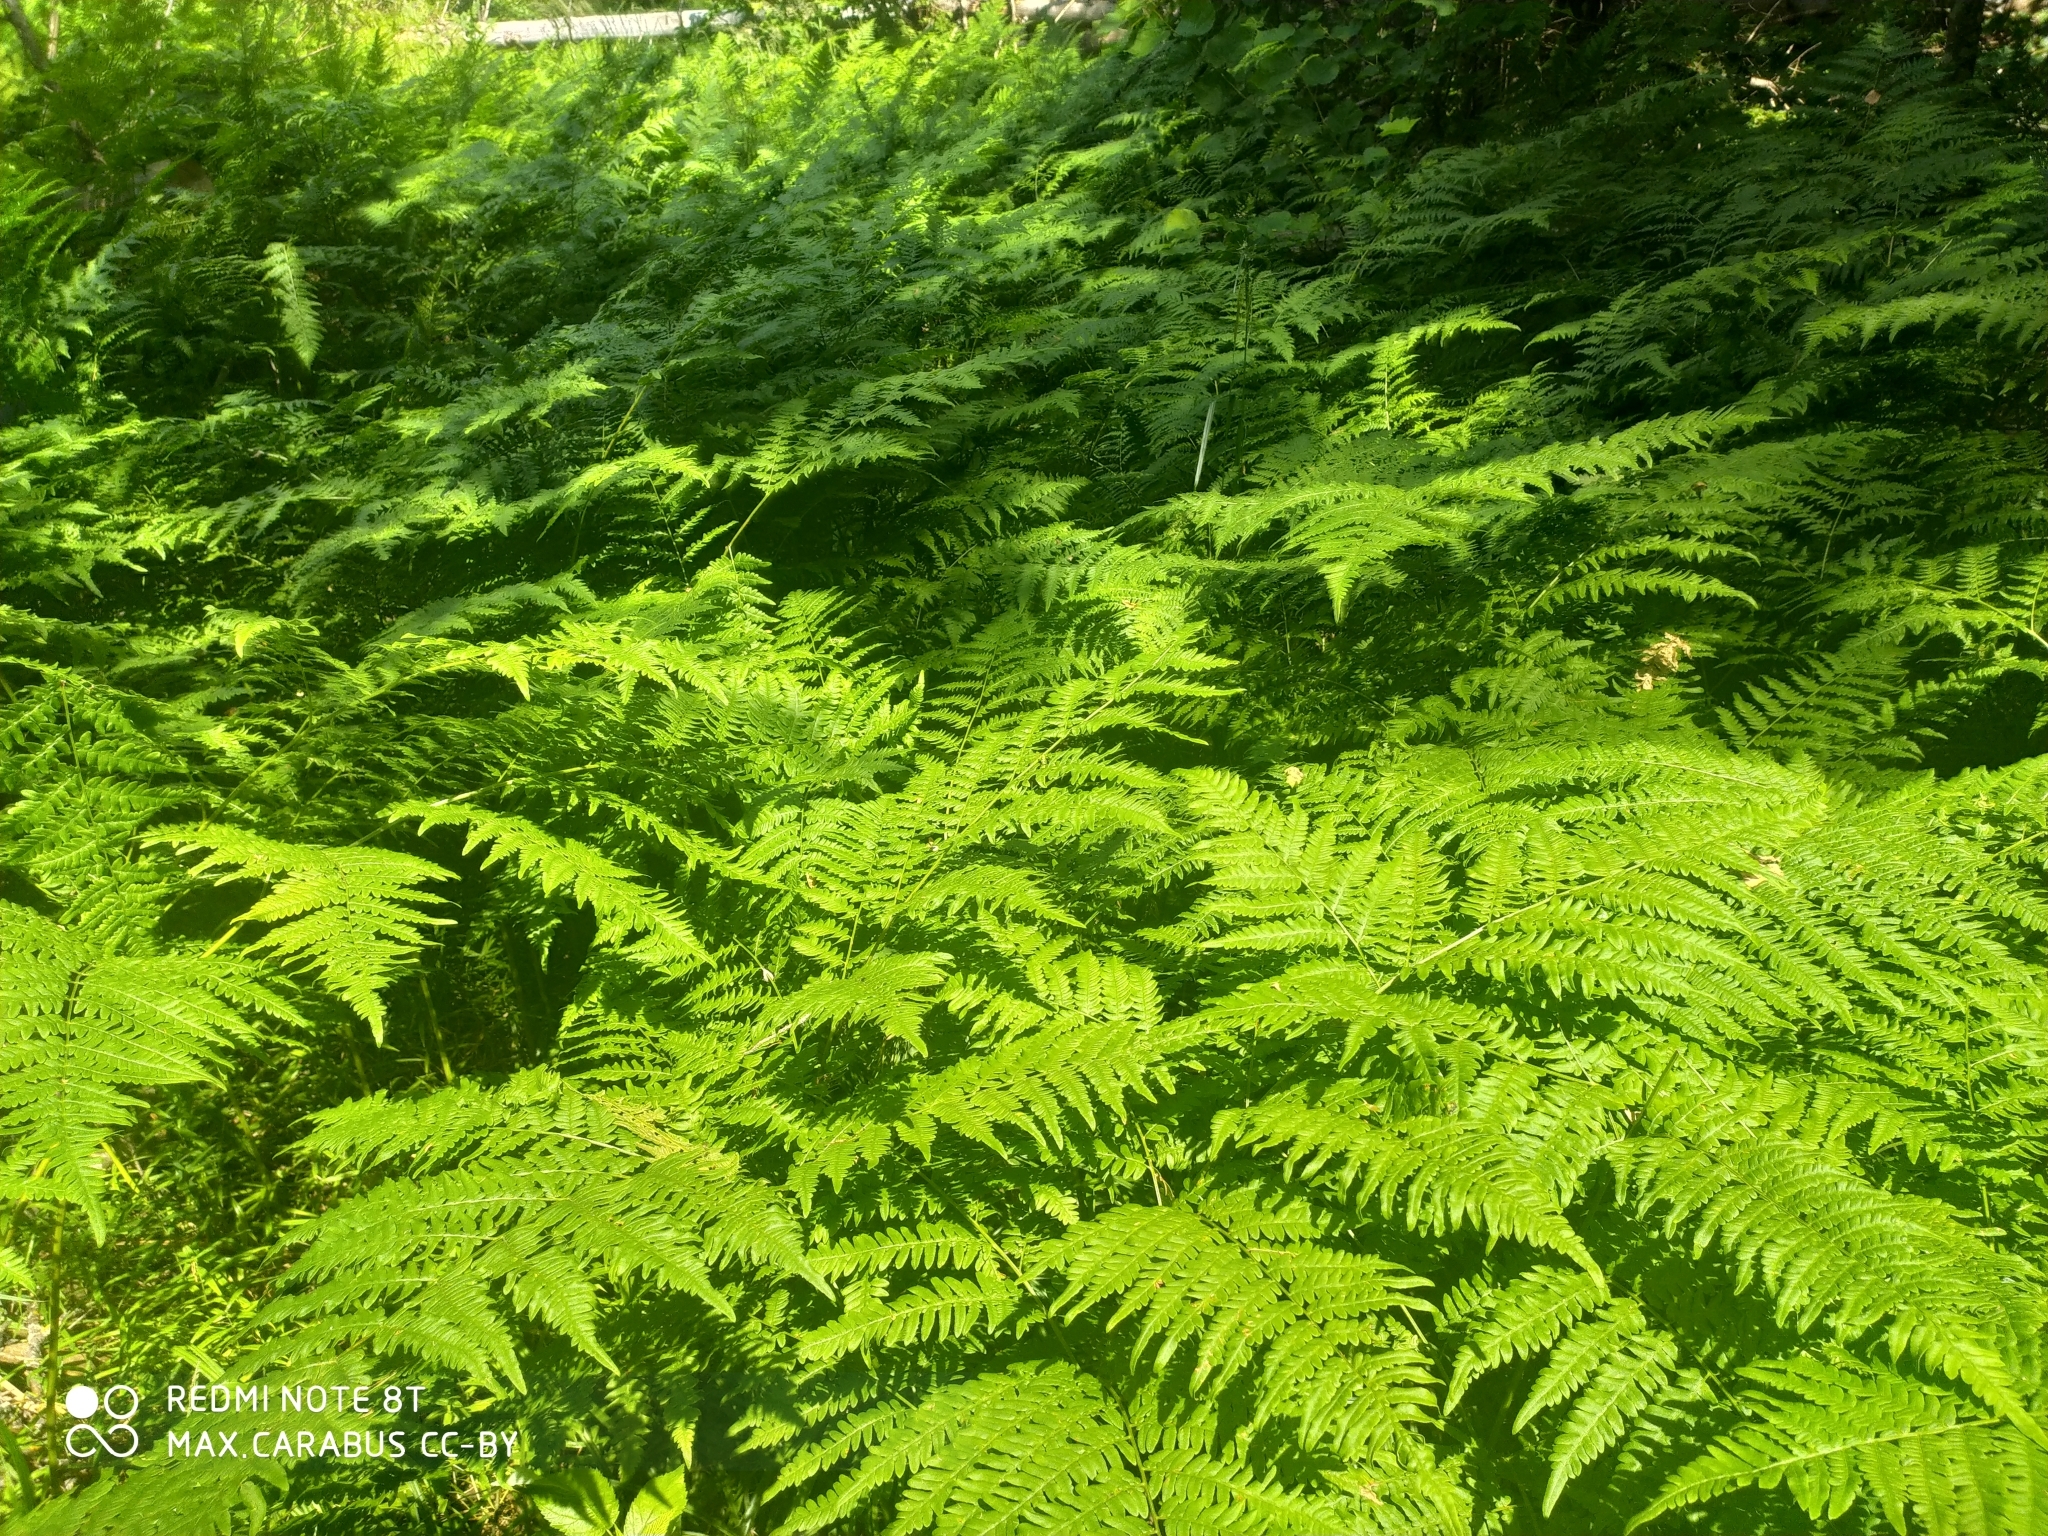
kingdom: Plantae
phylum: Tracheophyta
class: Polypodiopsida
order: Polypodiales
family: Dennstaedtiaceae
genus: Pteridium
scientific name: Pteridium aquilinum
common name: Bracken
